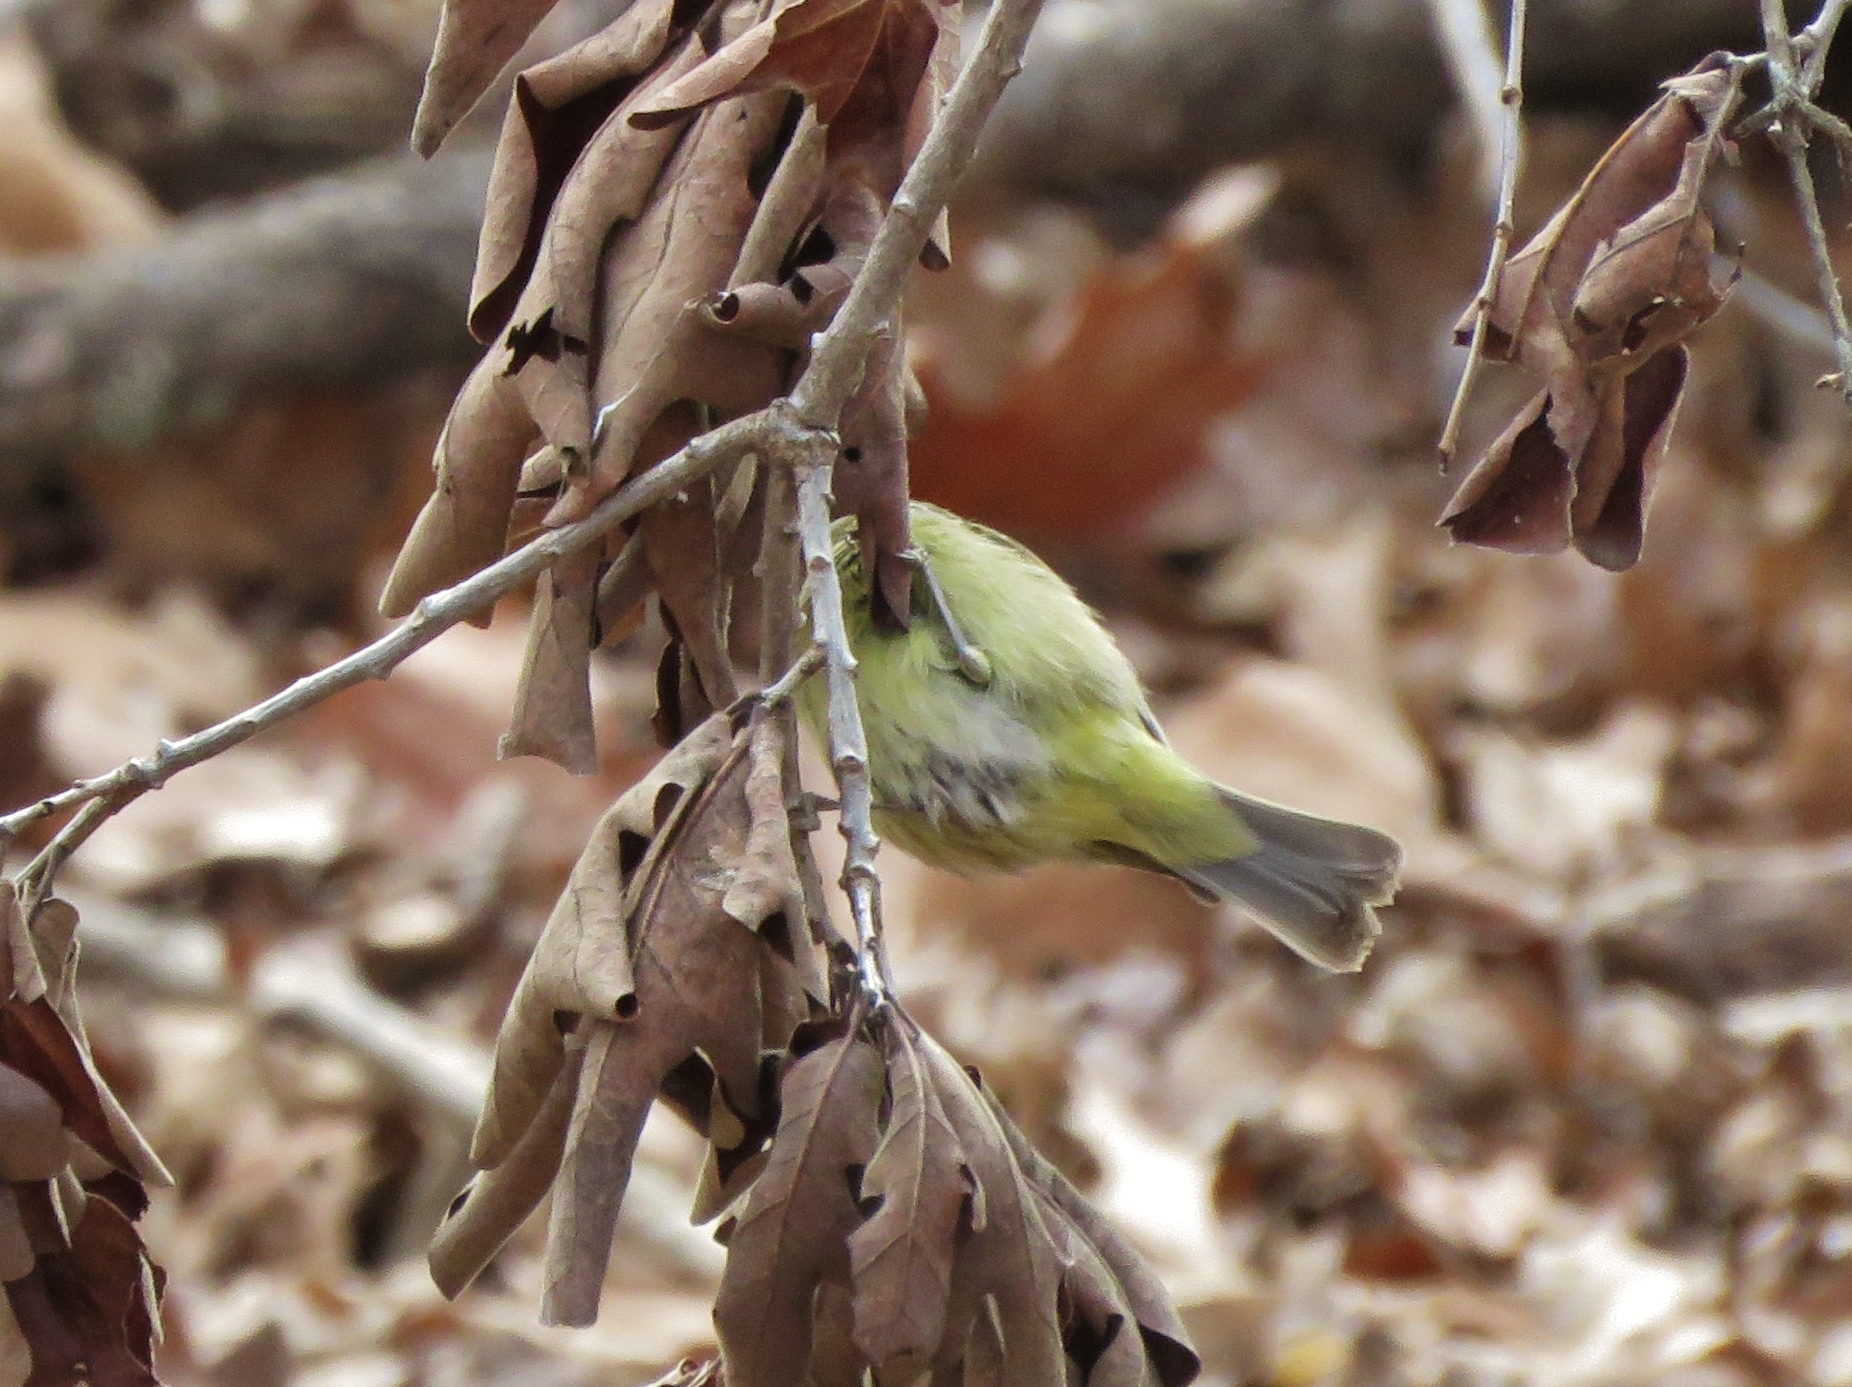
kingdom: Animalia
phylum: Chordata
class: Aves
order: Passeriformes
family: Parulidae
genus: Leiothlypis
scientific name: Leiothlypis celata
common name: Orange-crowned warbler
